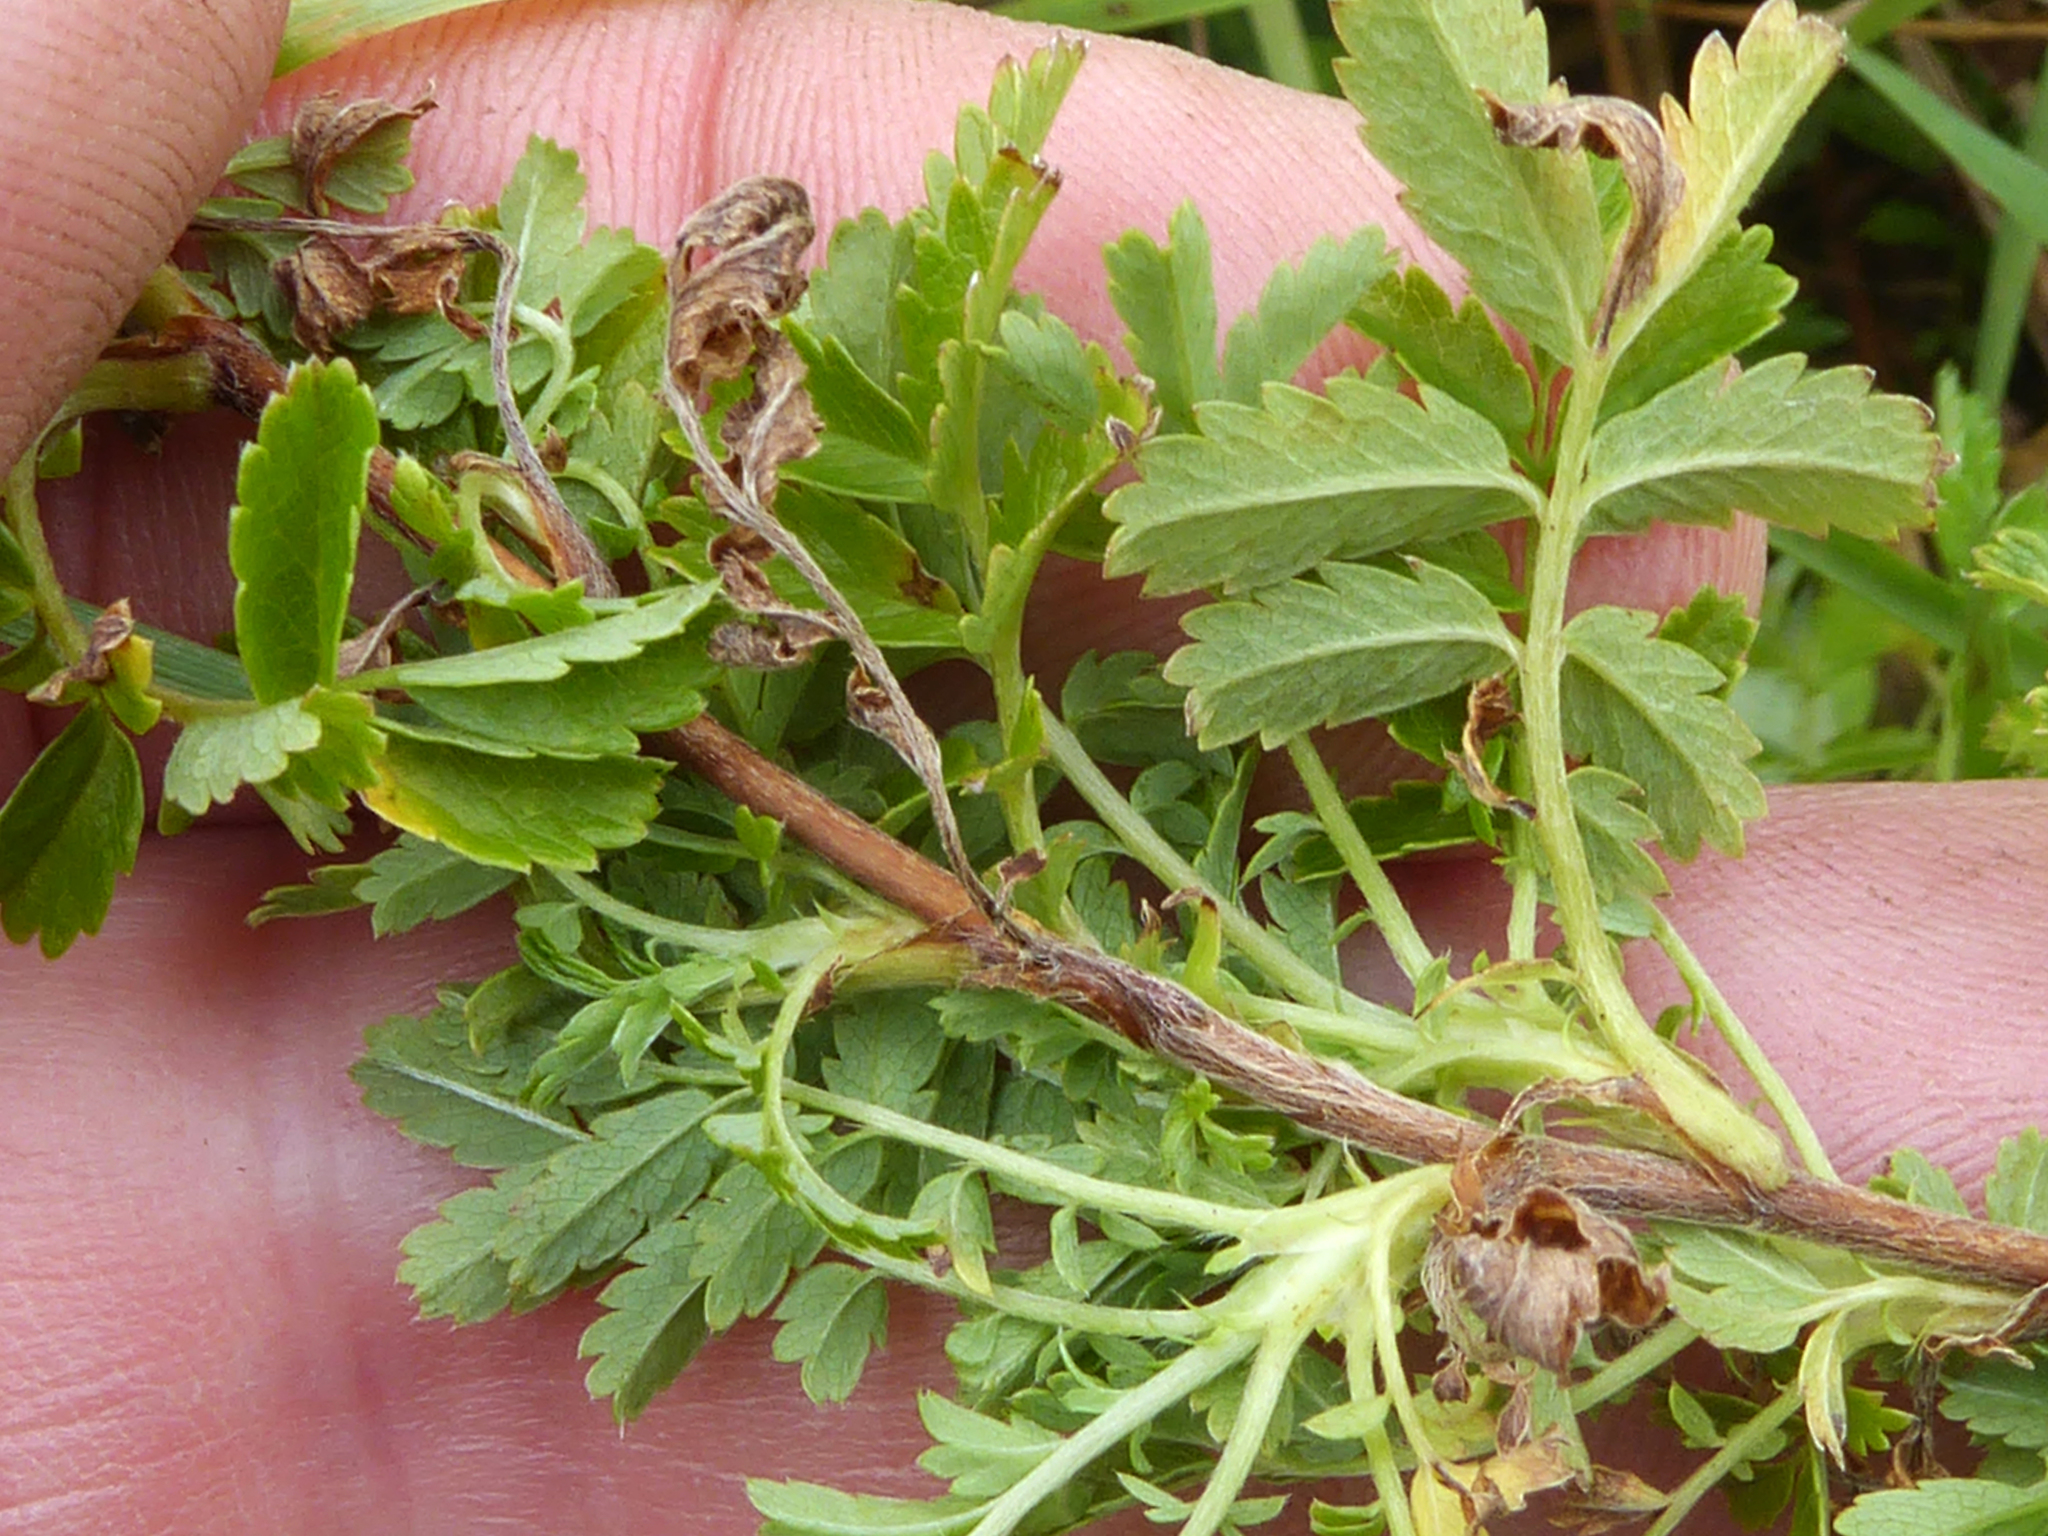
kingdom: Plantae
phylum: Tracheophyta
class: Magnoliopsida
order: Rosales
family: Rosaceae
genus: Acaena
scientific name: Acaena novae-zelandiae
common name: Pirri-pirri-bur
